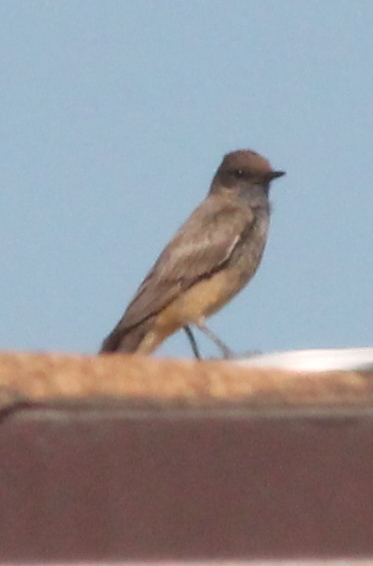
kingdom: Animalia
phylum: Chordata
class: Aves
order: Passeriformes
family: Tyrannidae
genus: Sayornis
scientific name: Sayornis saya
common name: Say's phoebe
